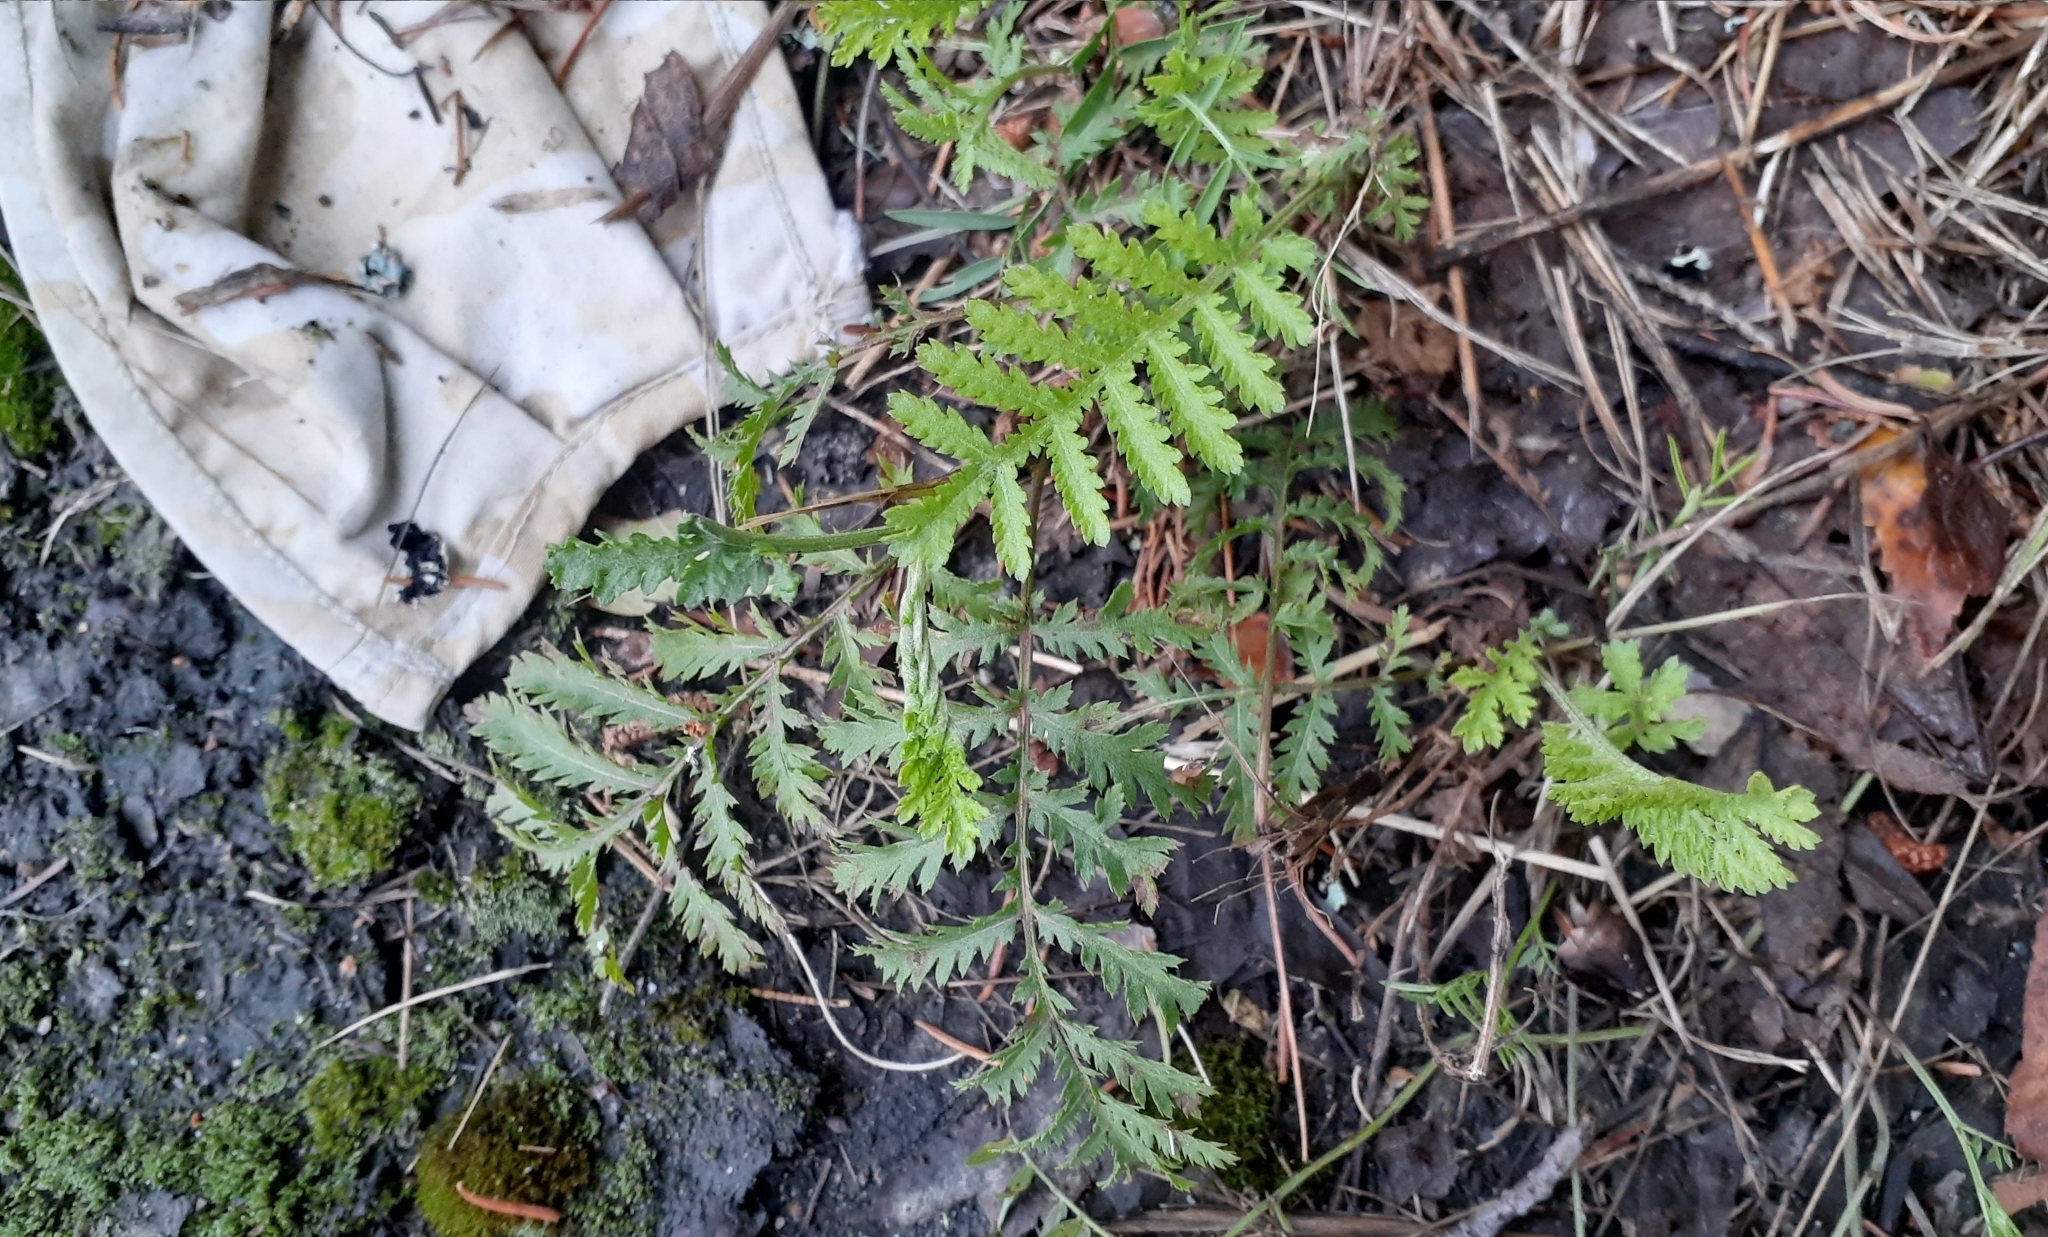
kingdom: Plantae
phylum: Tracheophyta
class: Magnoliopsida
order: Asterales
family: Asteraceae
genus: Tanacetum
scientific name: Tanacetum vulgare
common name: Common tansy
